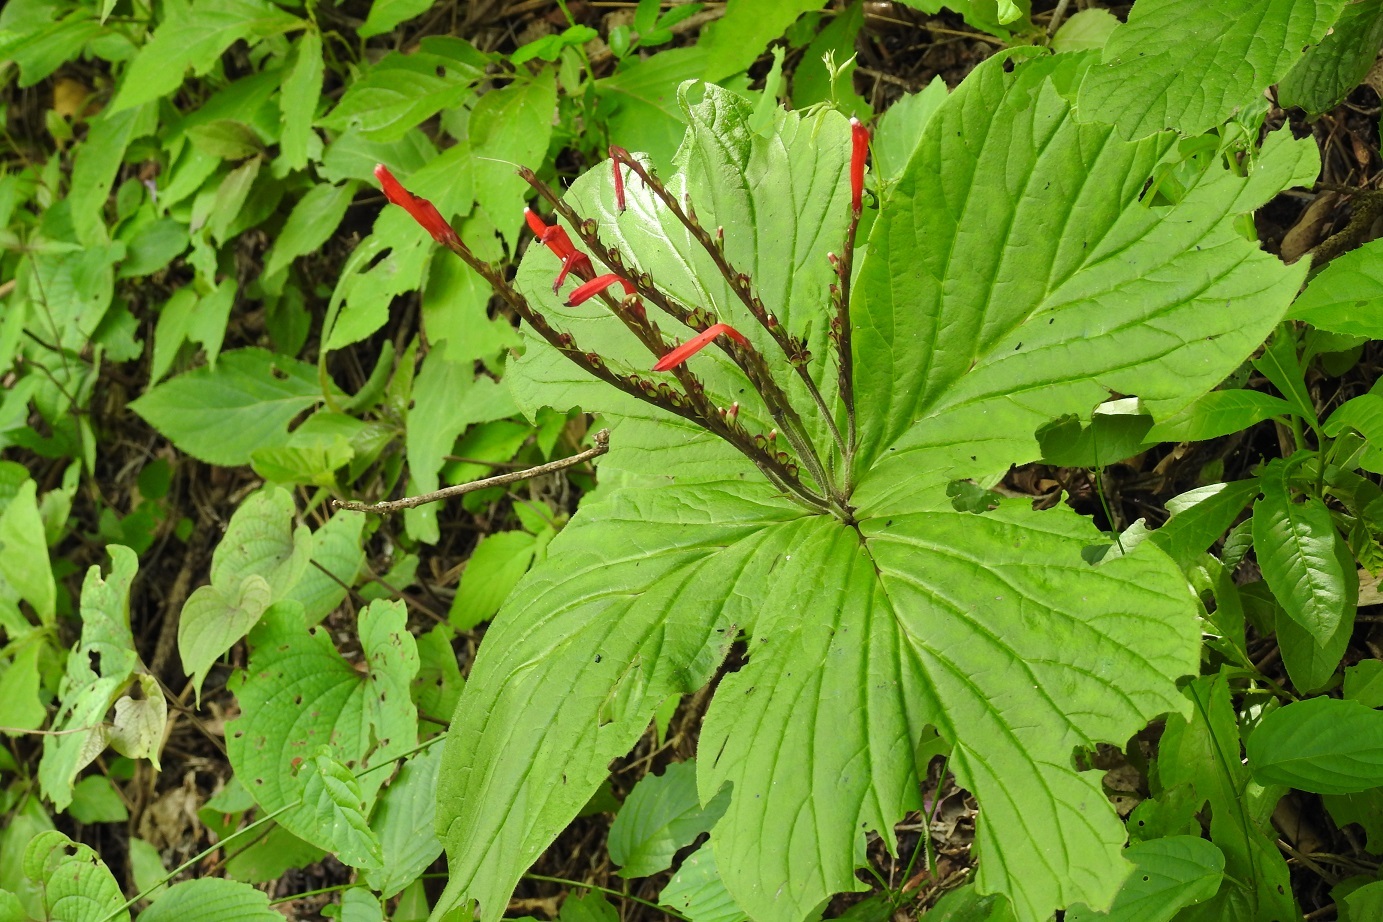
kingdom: Plantae
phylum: Tracheophyta
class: Magnoliopsida
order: Gentianales
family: Loganiaceae
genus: Spigelia
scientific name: Spigelia splendens
